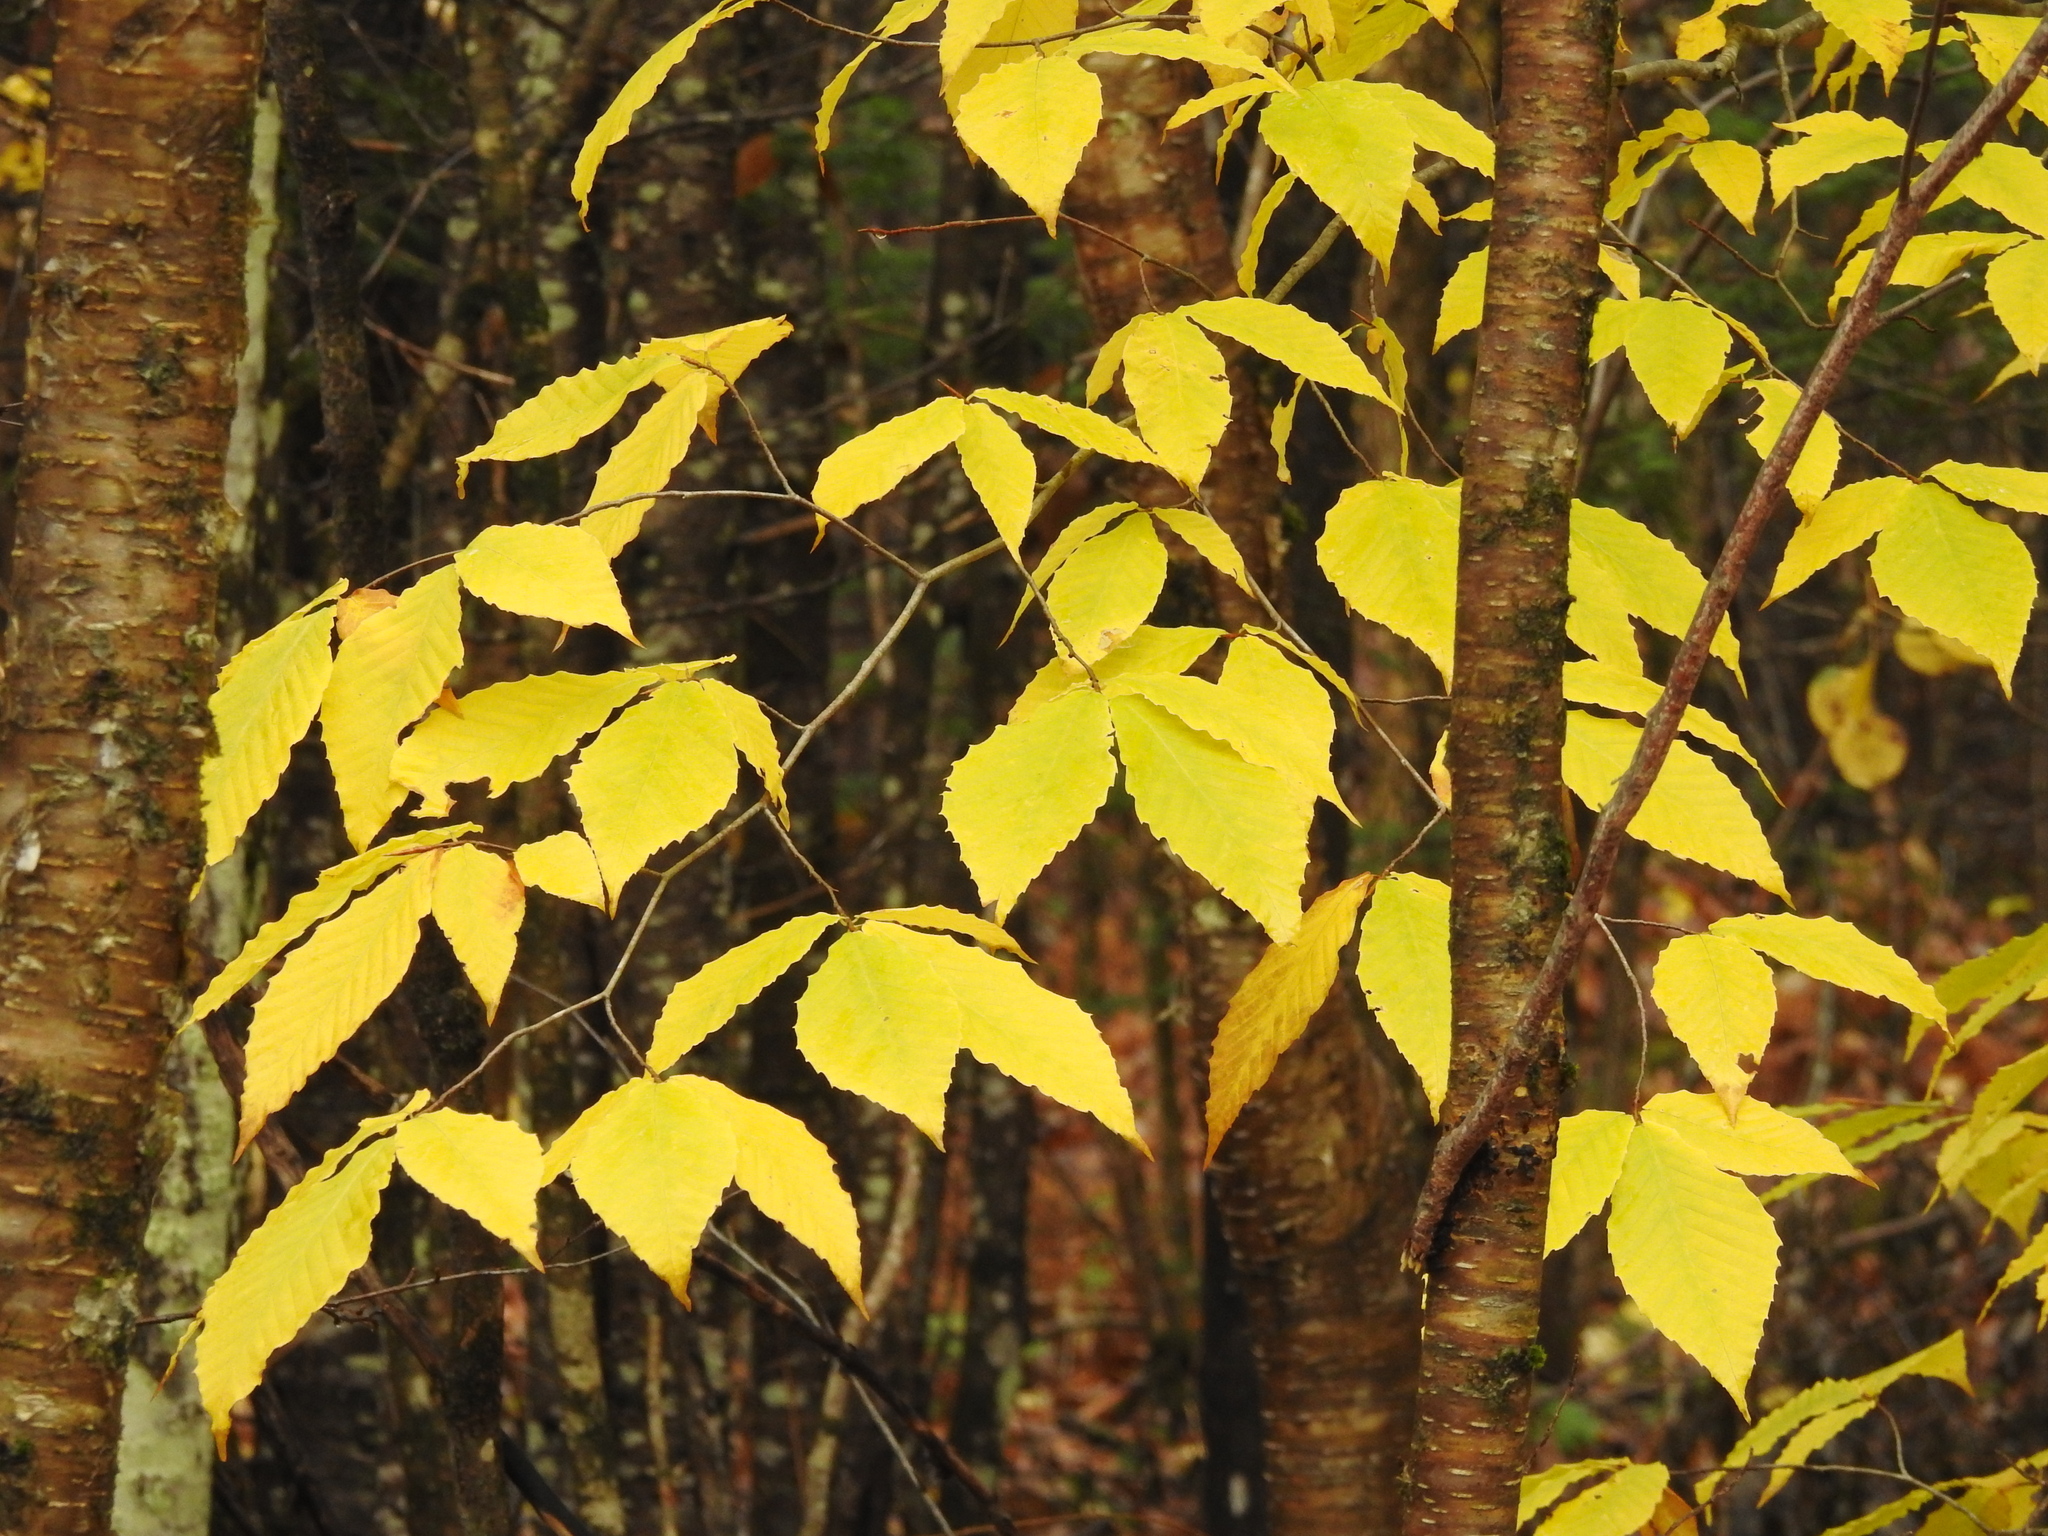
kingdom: Plantae
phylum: Tracheophyta
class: Magnoliopsida
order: Fagales
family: Fagaceae
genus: Fagus
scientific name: Fagus grandifolia
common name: American beech
